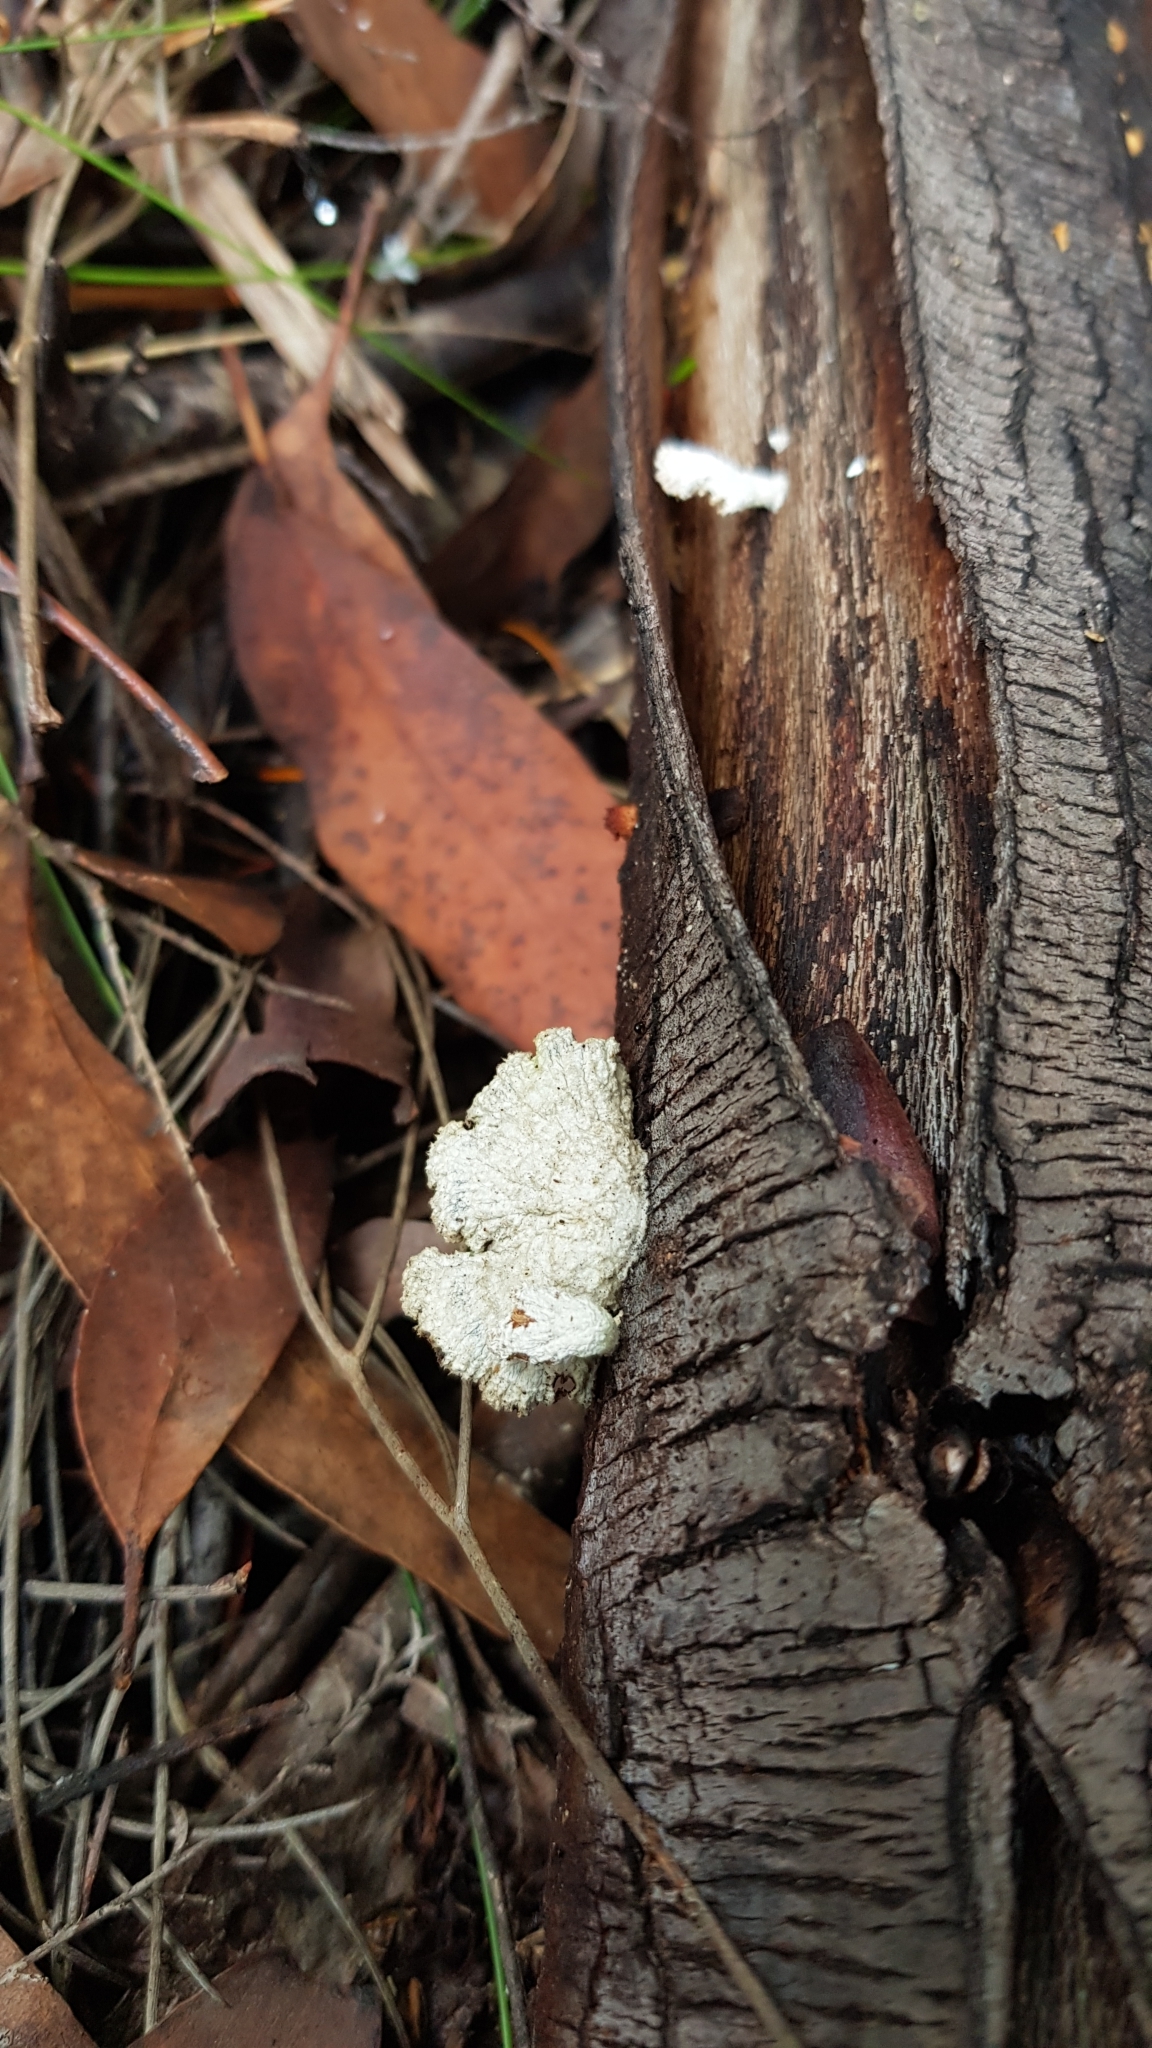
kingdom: Fungi
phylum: Basidiomycota
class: Agaricomycetes
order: Agaricales
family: Schizophyllaceae
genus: Schizophyllum
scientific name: Schizophyllum commune
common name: Common porecrust
